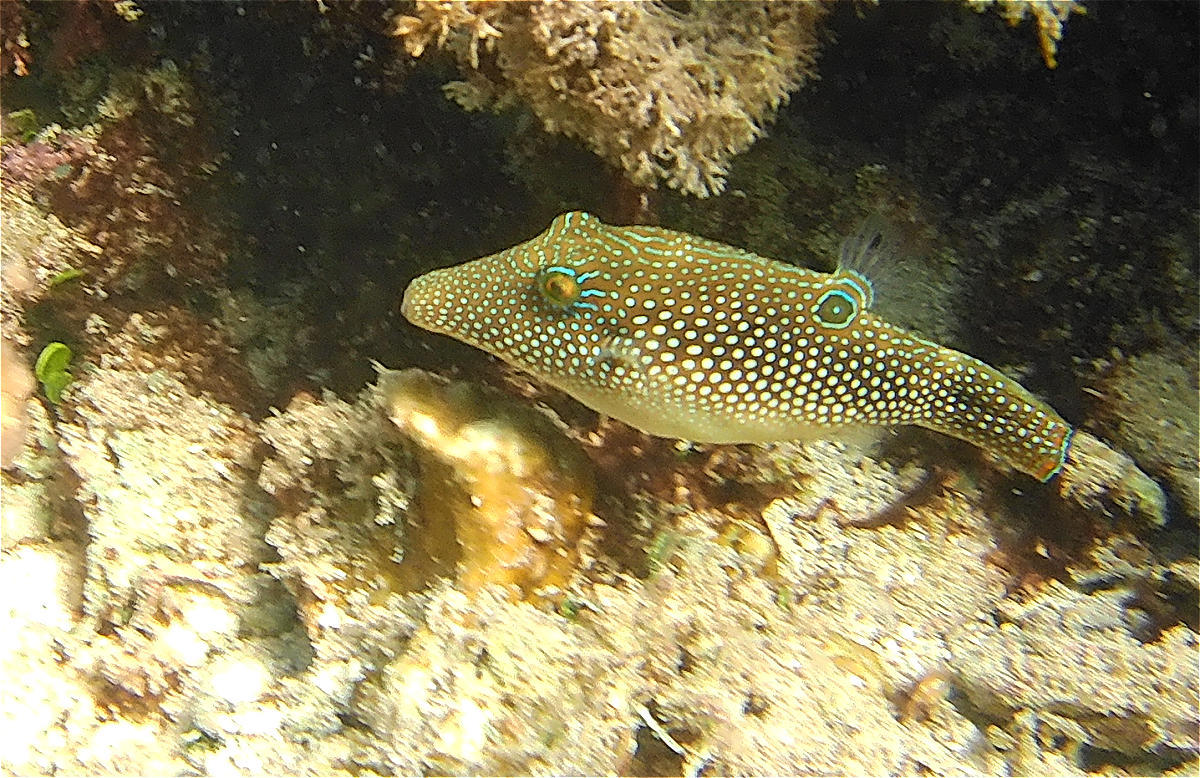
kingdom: Animalia
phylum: Chordata
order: Tetraodontiformes
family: Tetraodontidae
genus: Canthigaster
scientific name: Canthigaster margaritata
